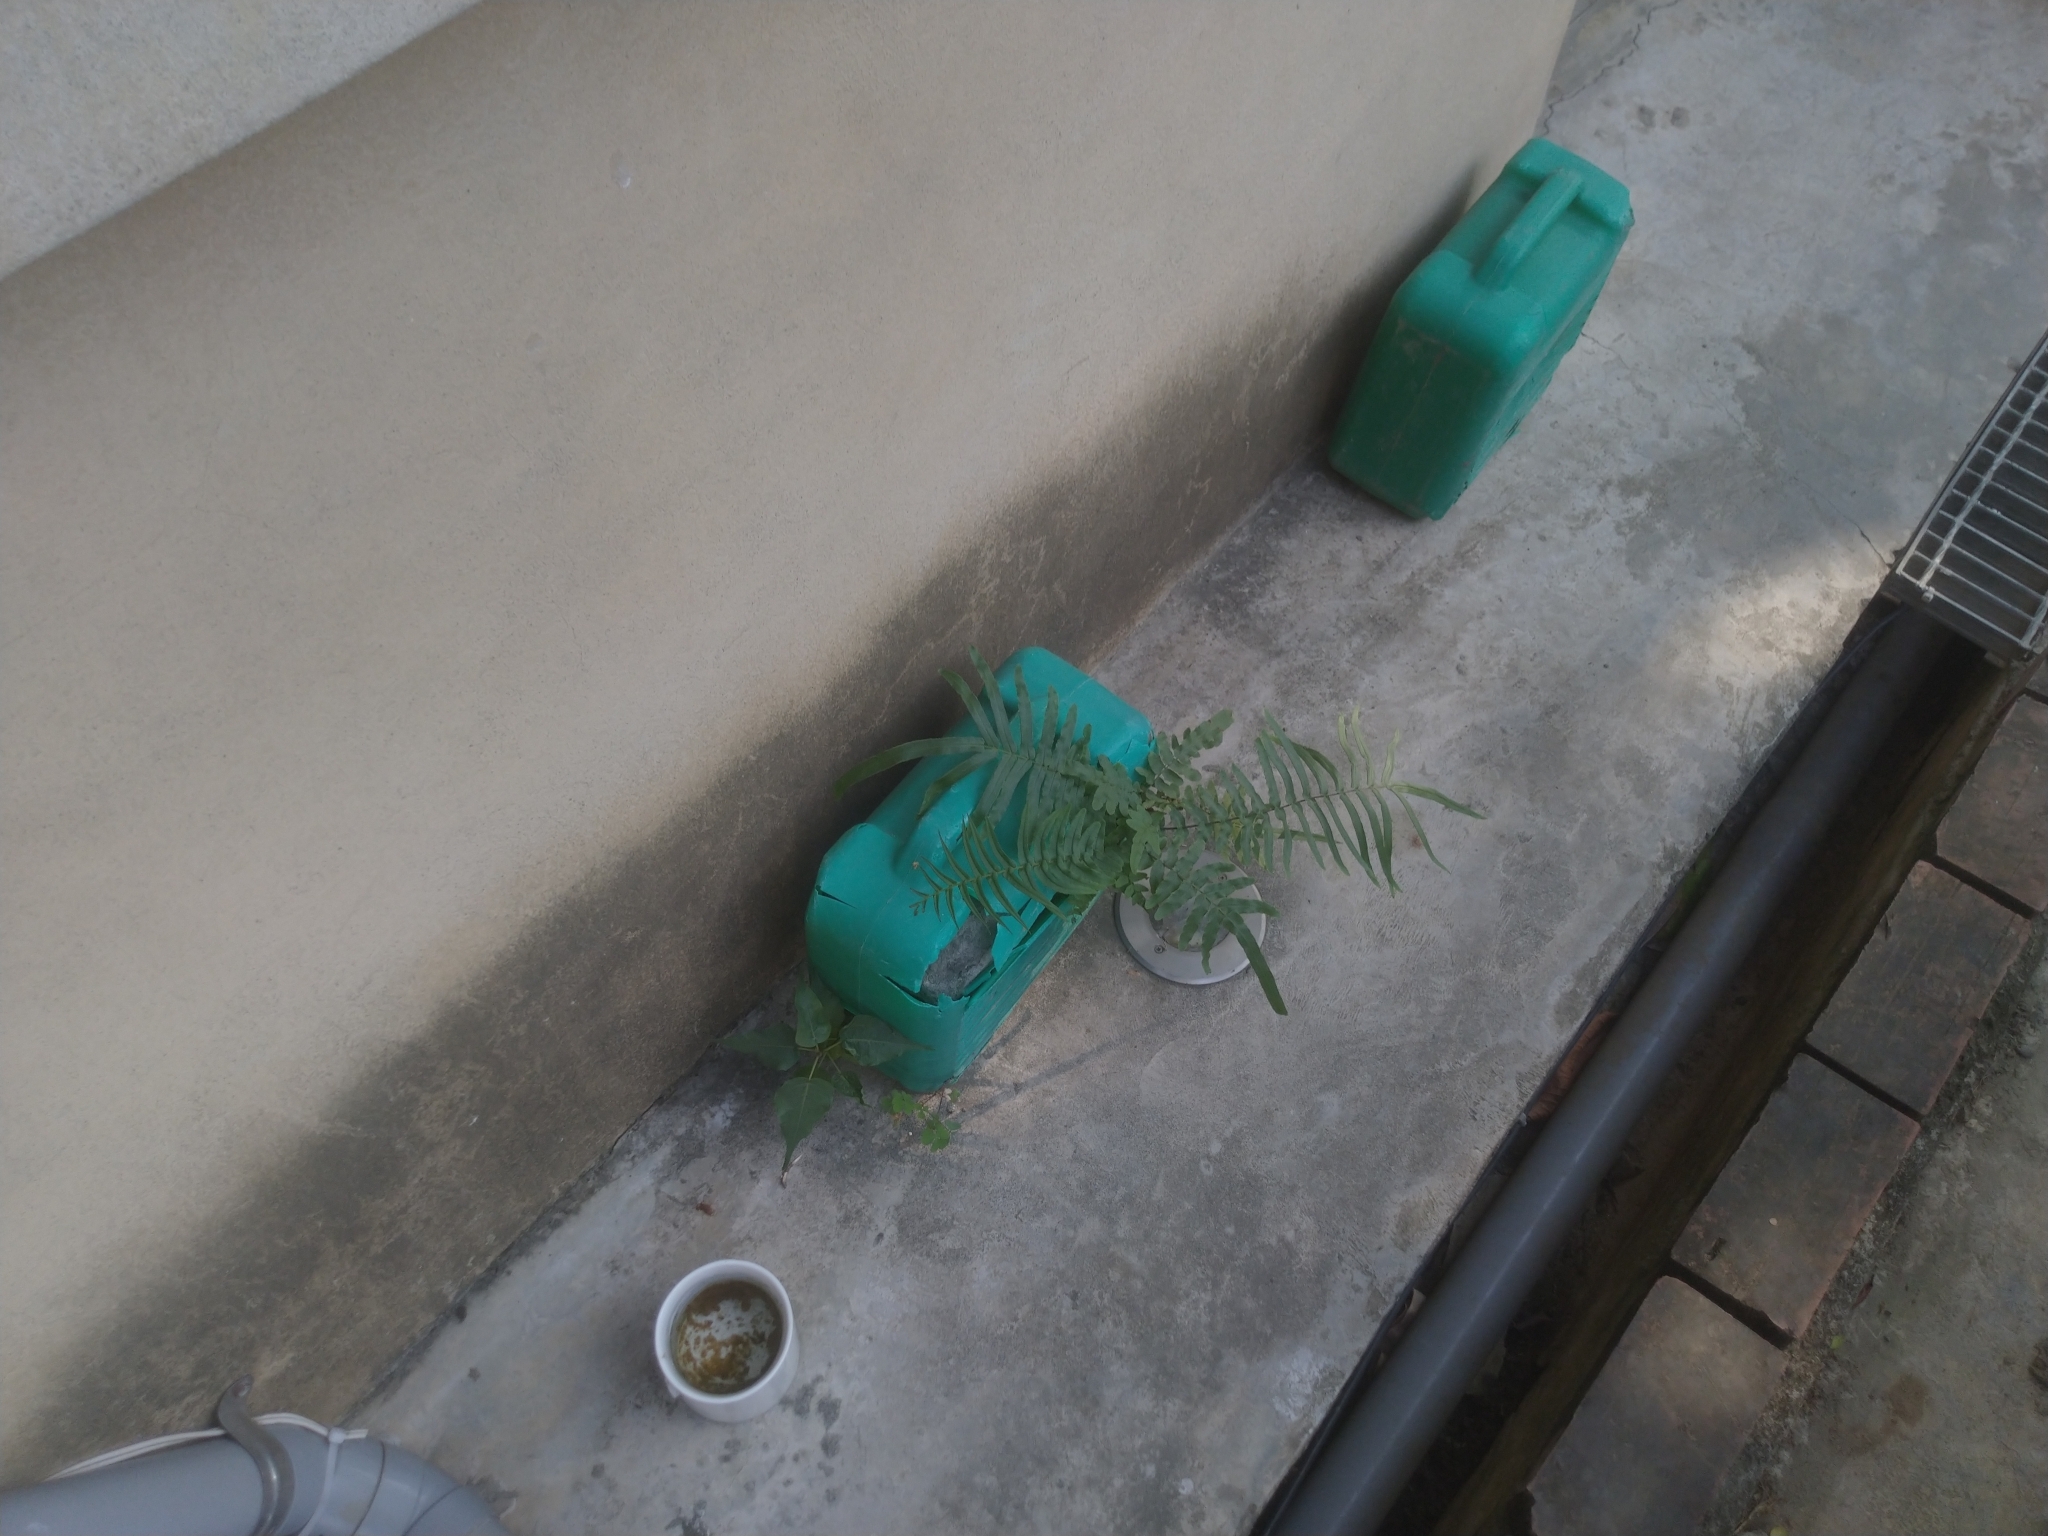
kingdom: Plantae
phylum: Tracheophyta
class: Polypodiopsida
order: Polypodiales
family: Pteridaceae
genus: Pteris
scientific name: Pteris vittata
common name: Ladder brake
